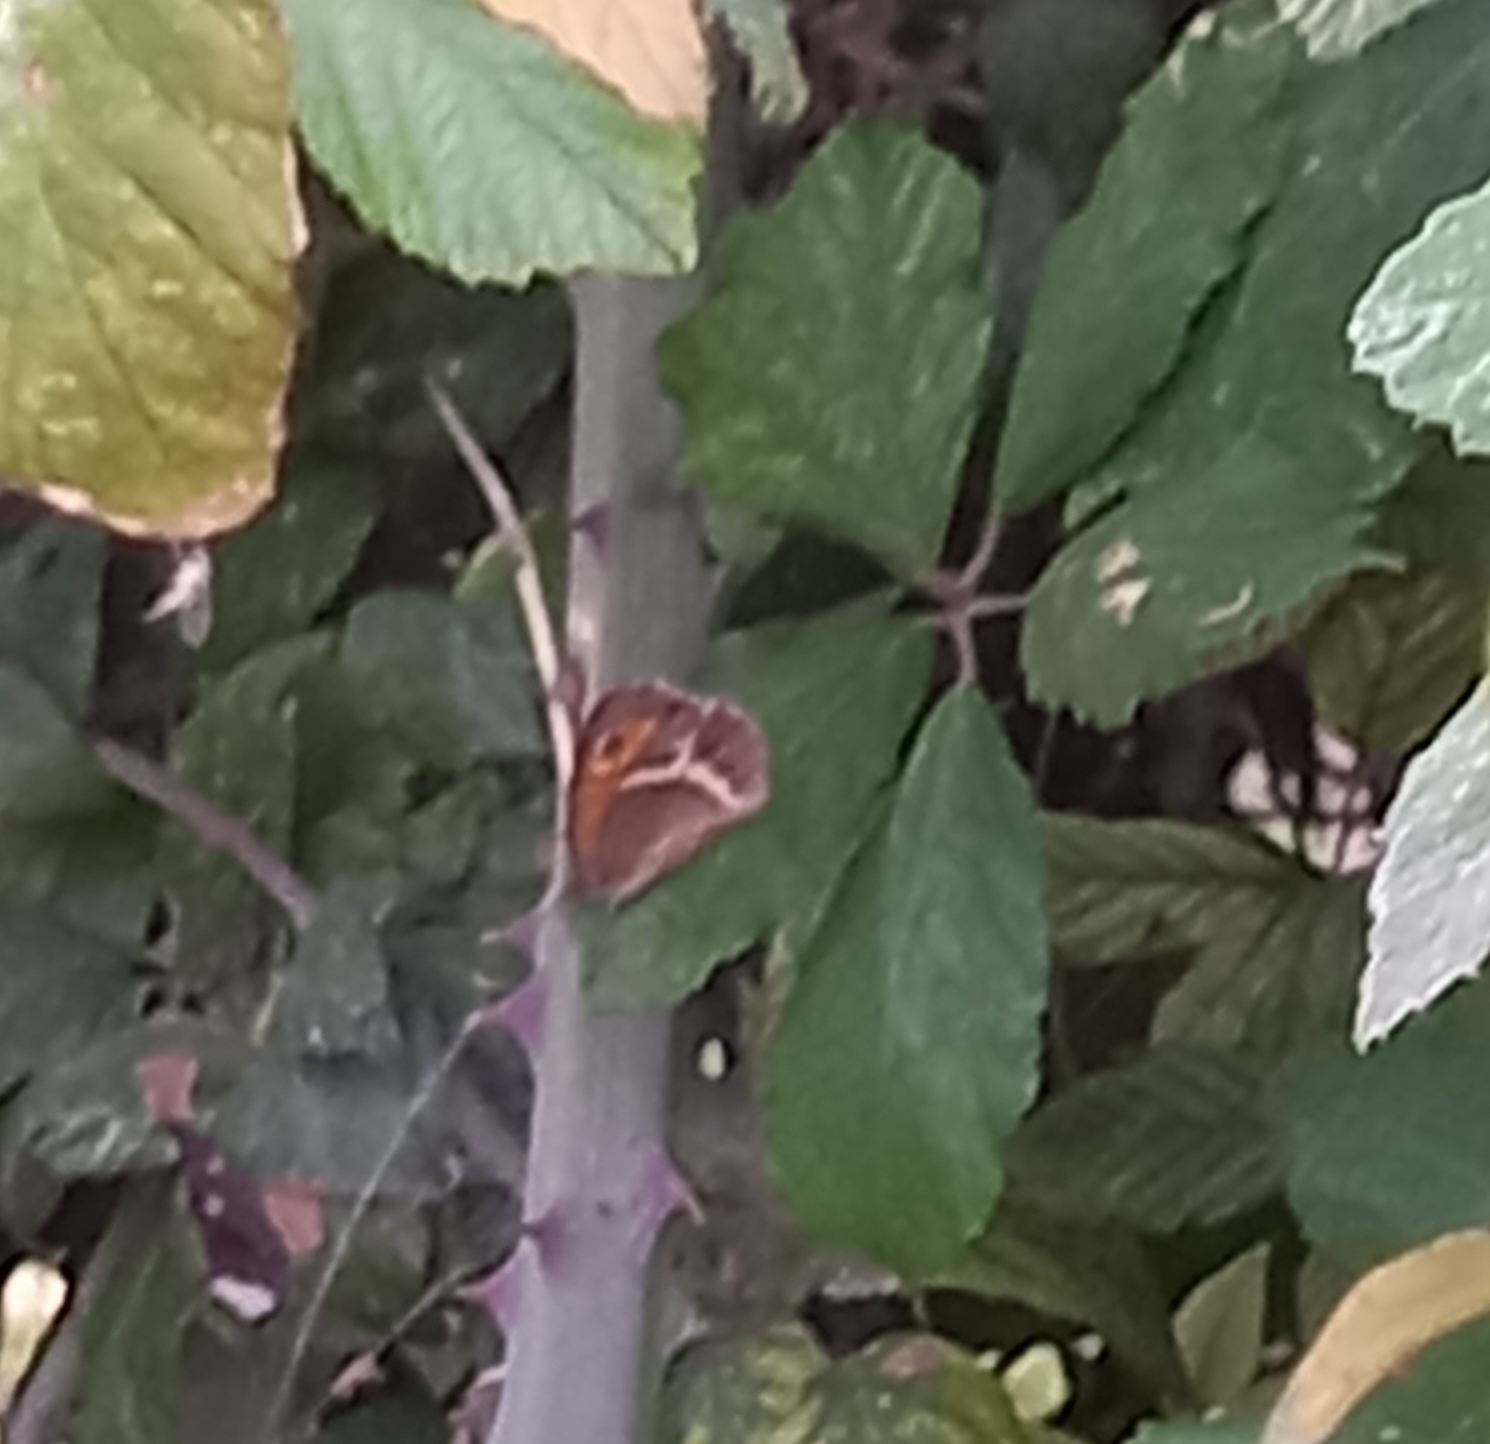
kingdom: Animalia
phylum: Arthropoda
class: Insecta
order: Lepidoptera
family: Nymphalidae
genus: Pyronia
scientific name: Pyronia bathseba
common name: Spanish gatekeeper
